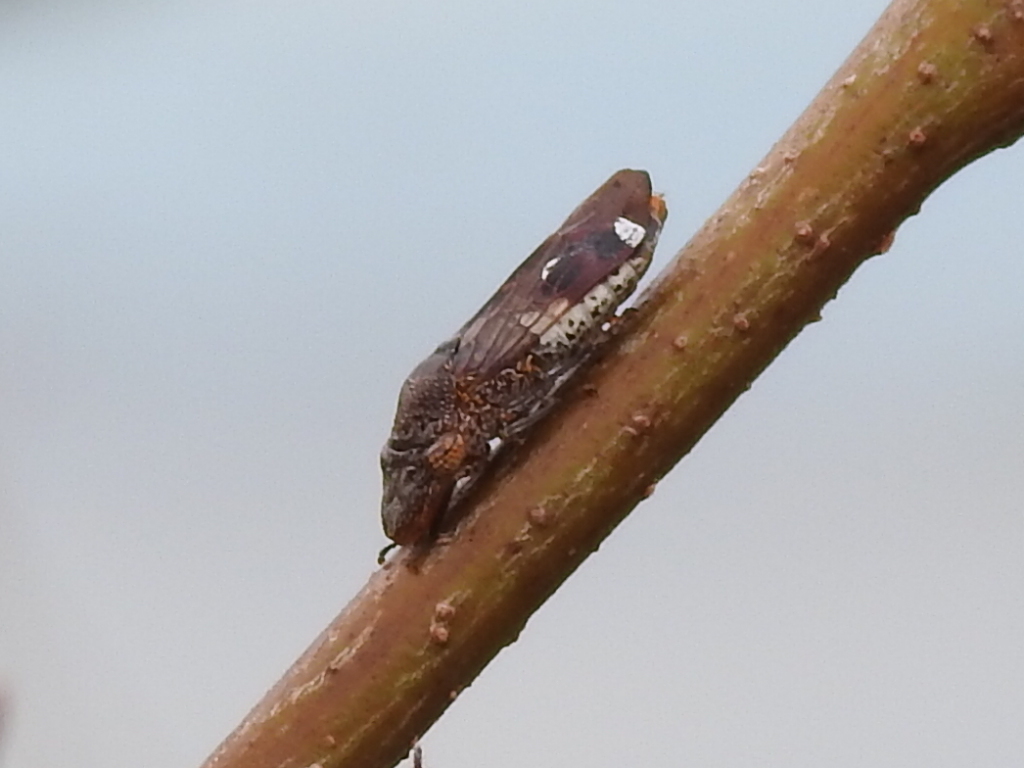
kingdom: Animalia
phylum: Arthropoda
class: Insecta
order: Hemiptera
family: Cicadellidae
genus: Homalodisca
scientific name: Homalodisca vitripennis
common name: Glassy-winged sharpshooter
